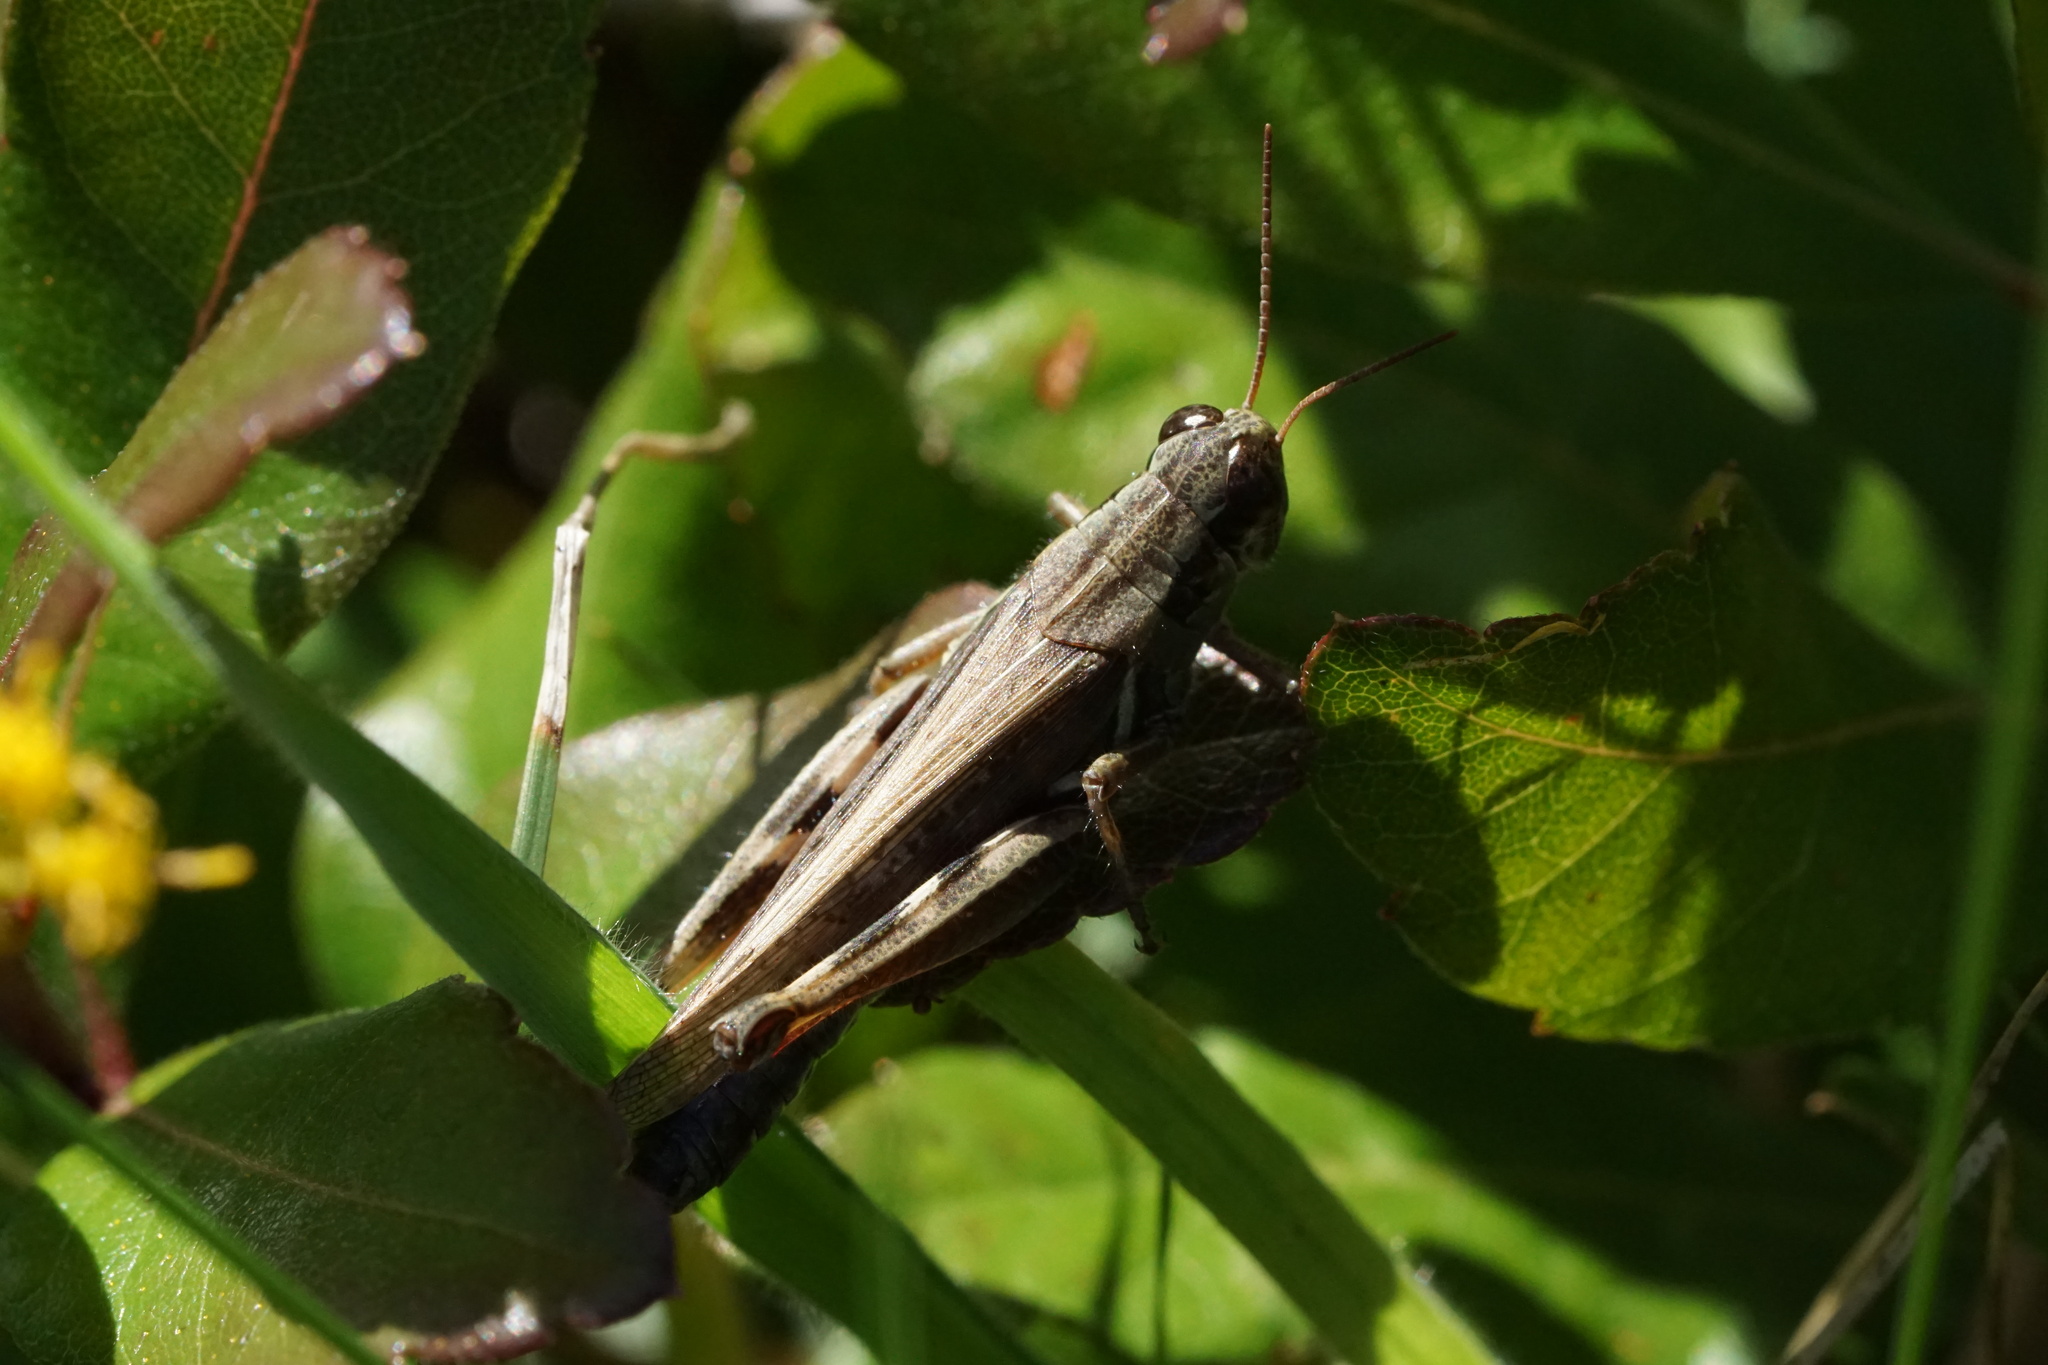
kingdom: Animalia
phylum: Arthropoda
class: Insecta
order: Orthoptera
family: Acrididae
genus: Melanoplus
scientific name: Melanoplus femurrubrum
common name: Red-legged grasshopper
